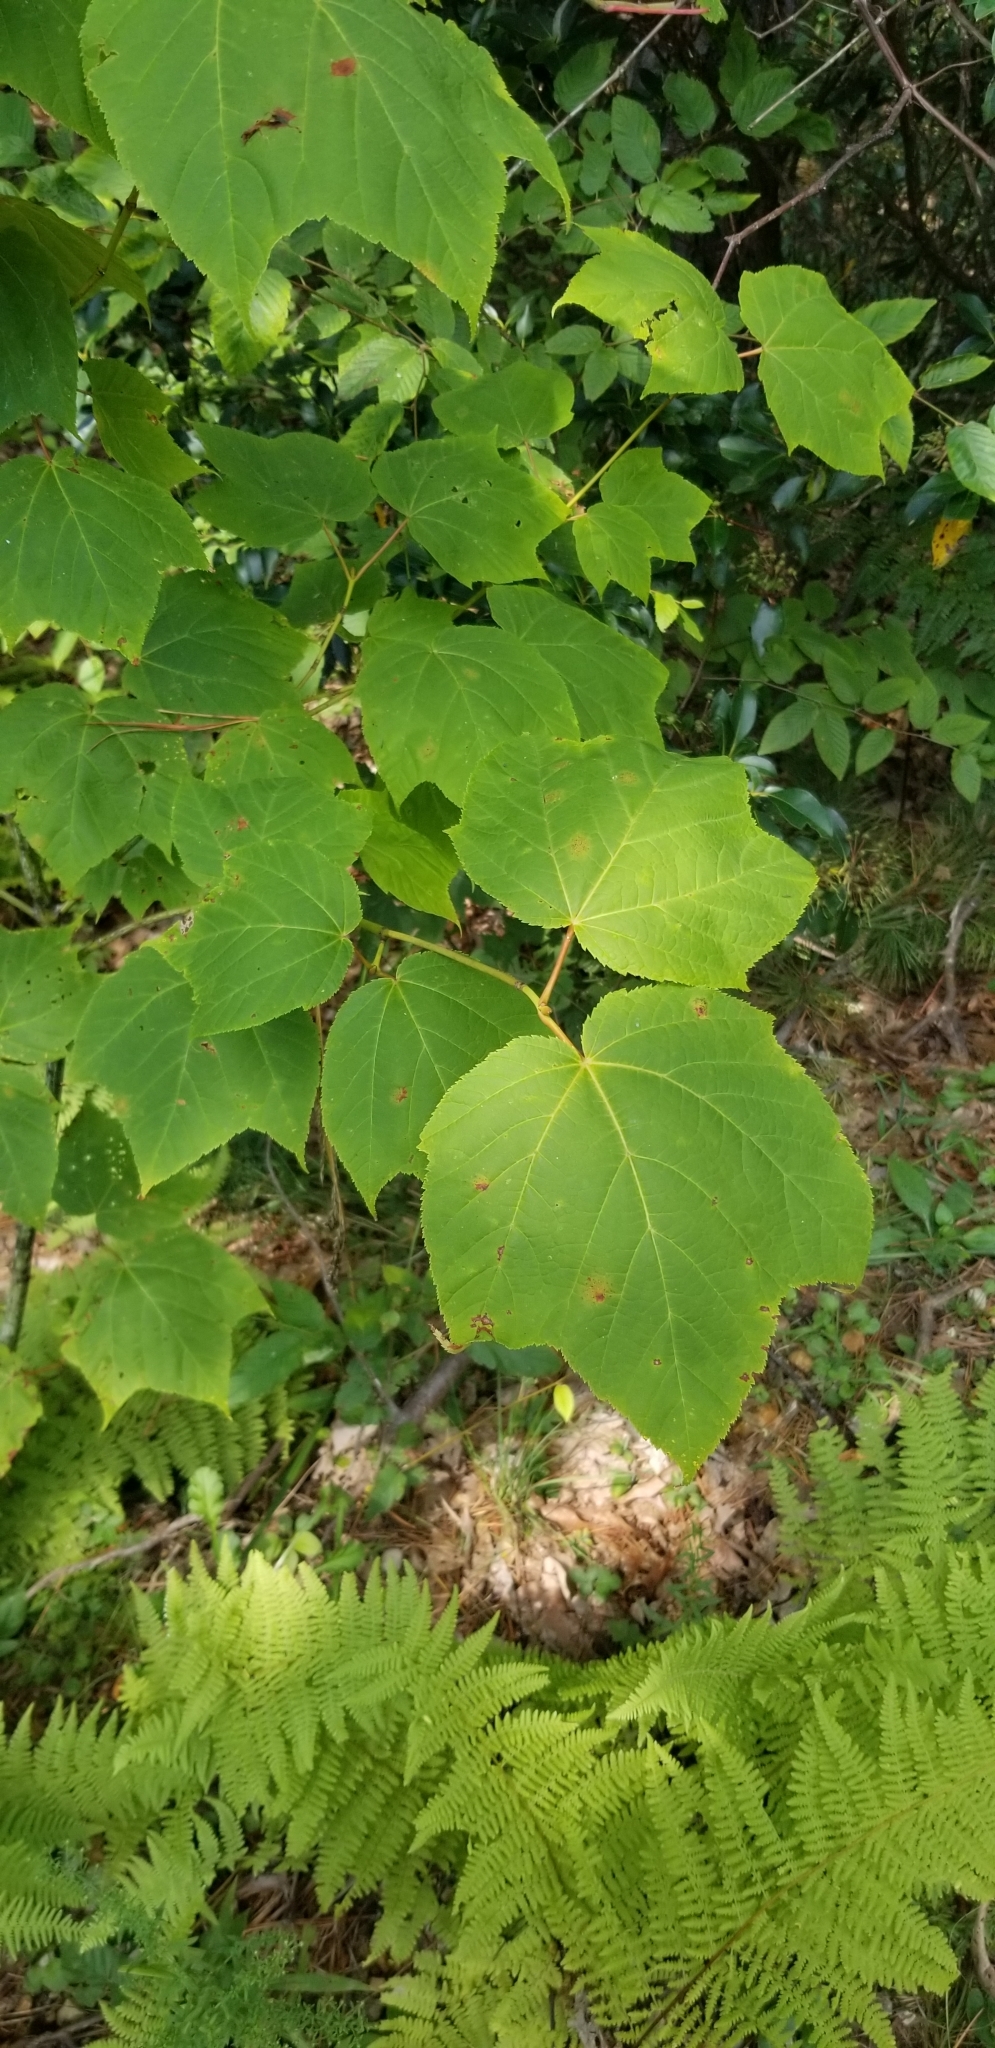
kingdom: Plantae
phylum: Tracheophyta
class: Magnoliopsida
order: Sapindales
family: Sapindaceae
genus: Acer
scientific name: Acer pensylvanicum
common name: Moosewood
